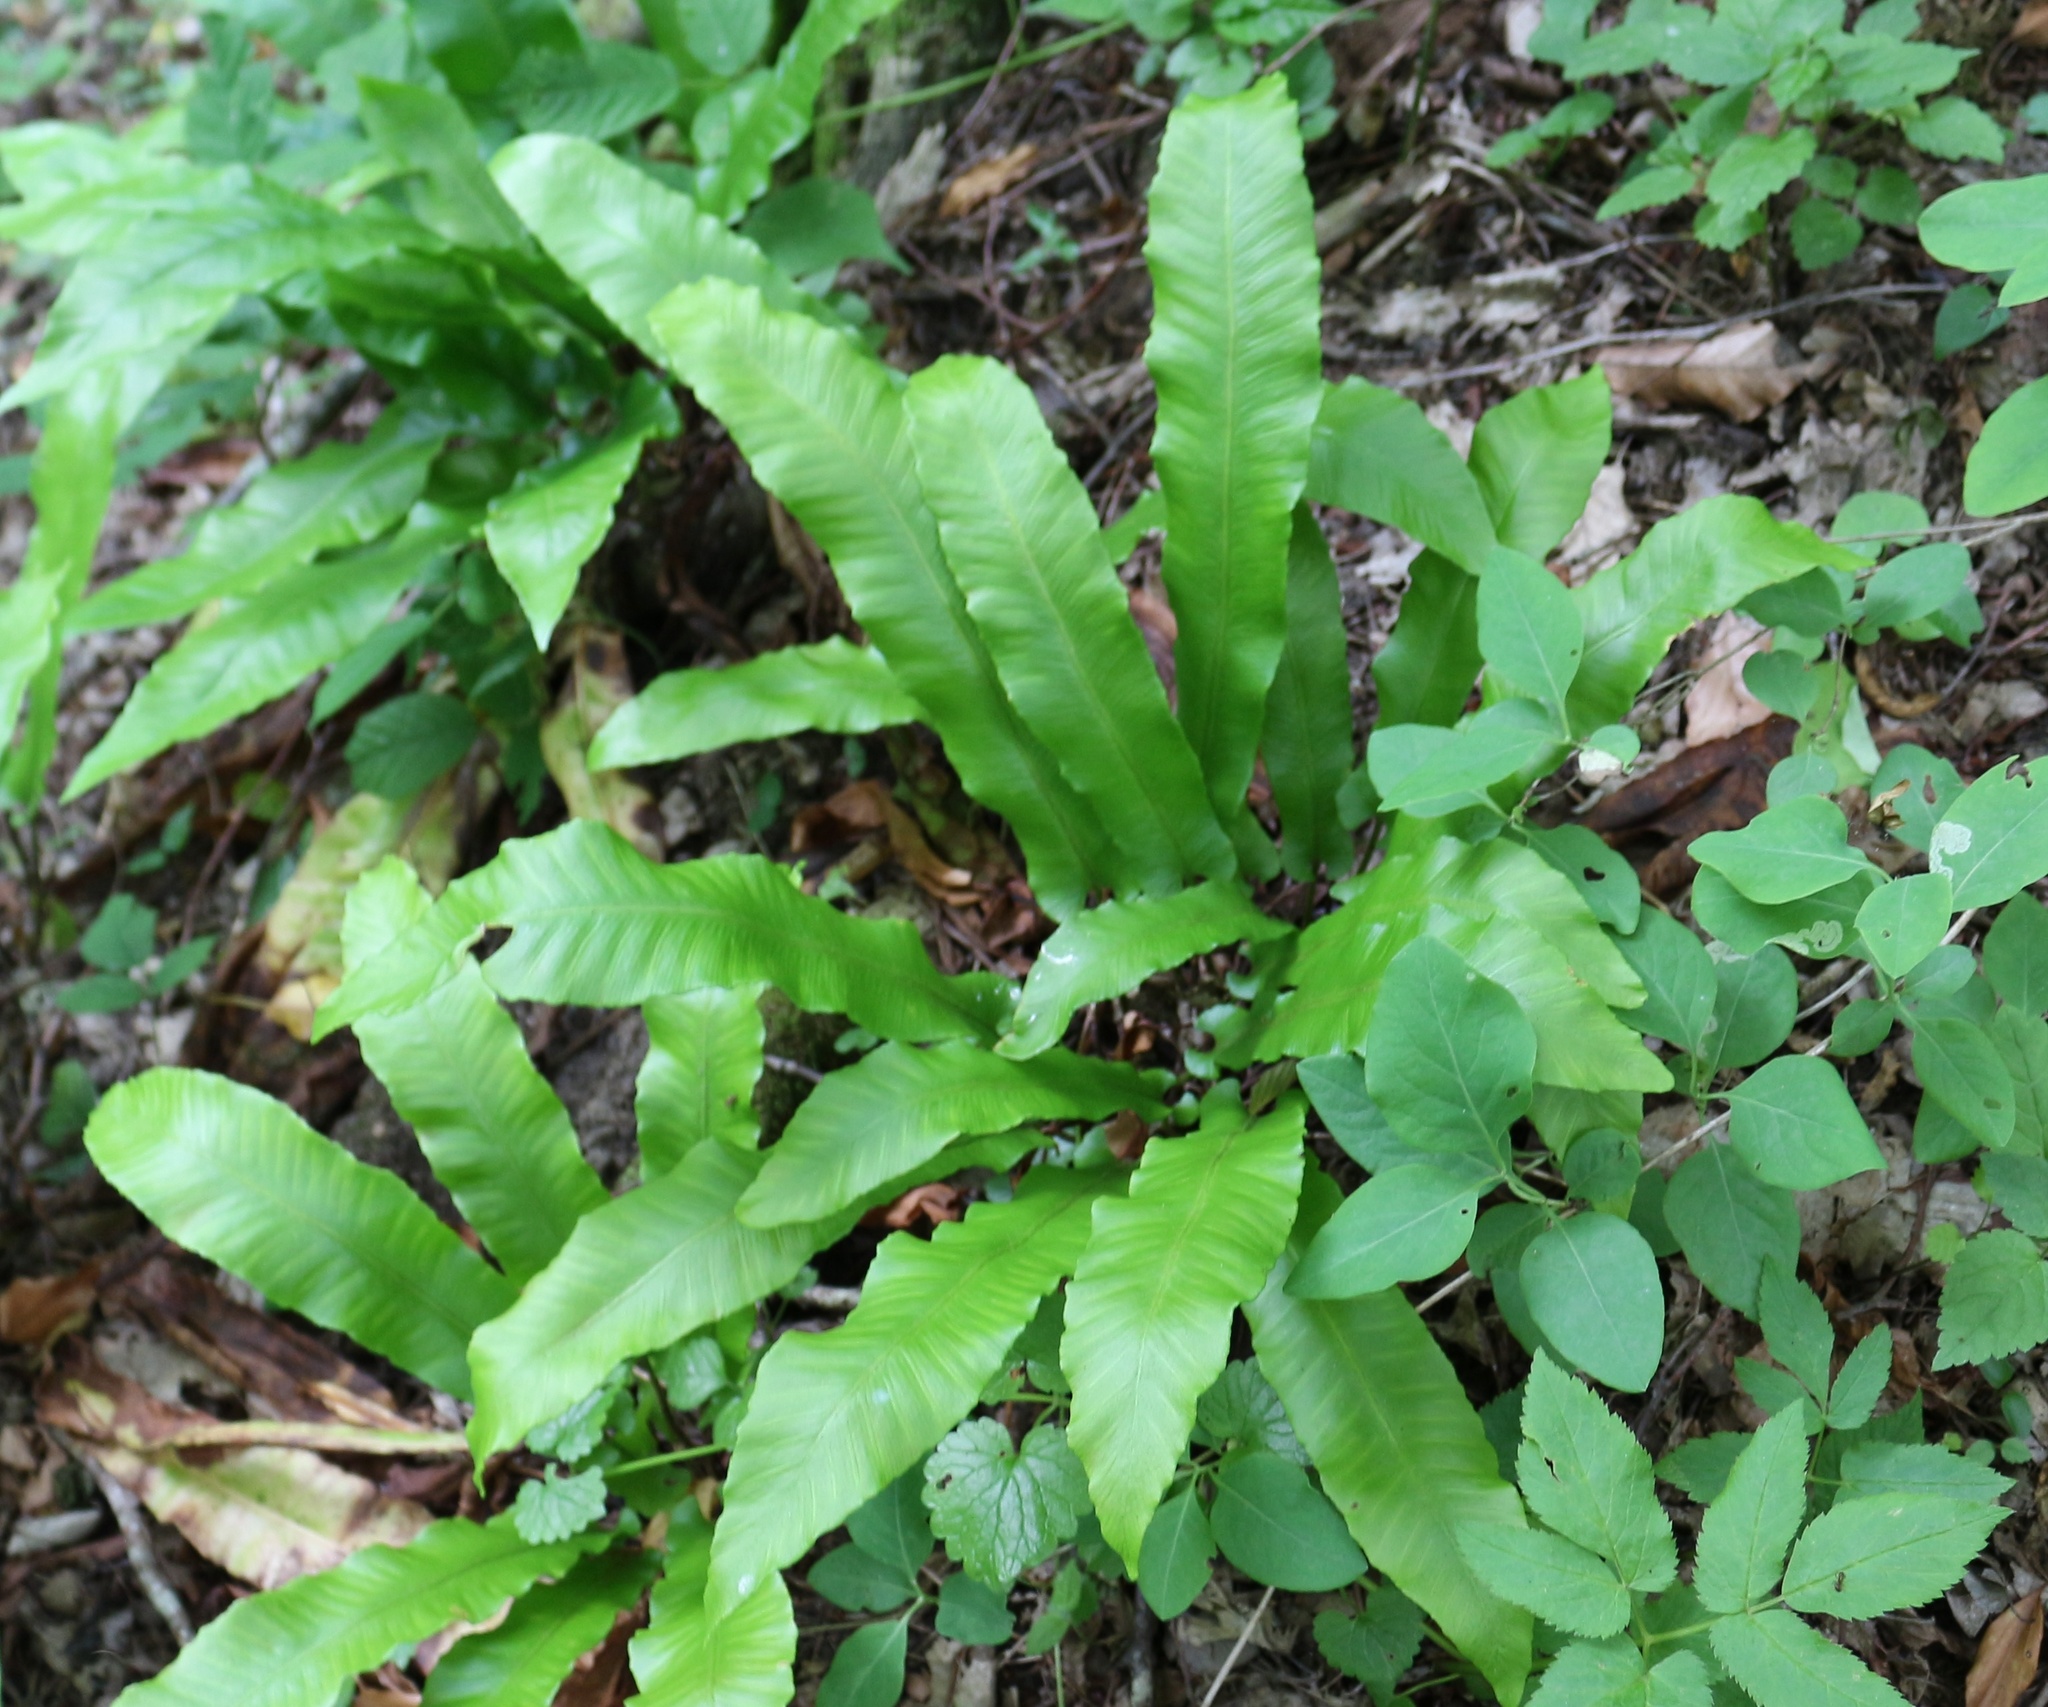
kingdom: Plantae
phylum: Tracheophyta
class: Polypodiopsida
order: Polypodiales
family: Aspleniaceae
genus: Asplenium
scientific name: Asplenium scolopendrium
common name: Hart's-tongue fern
